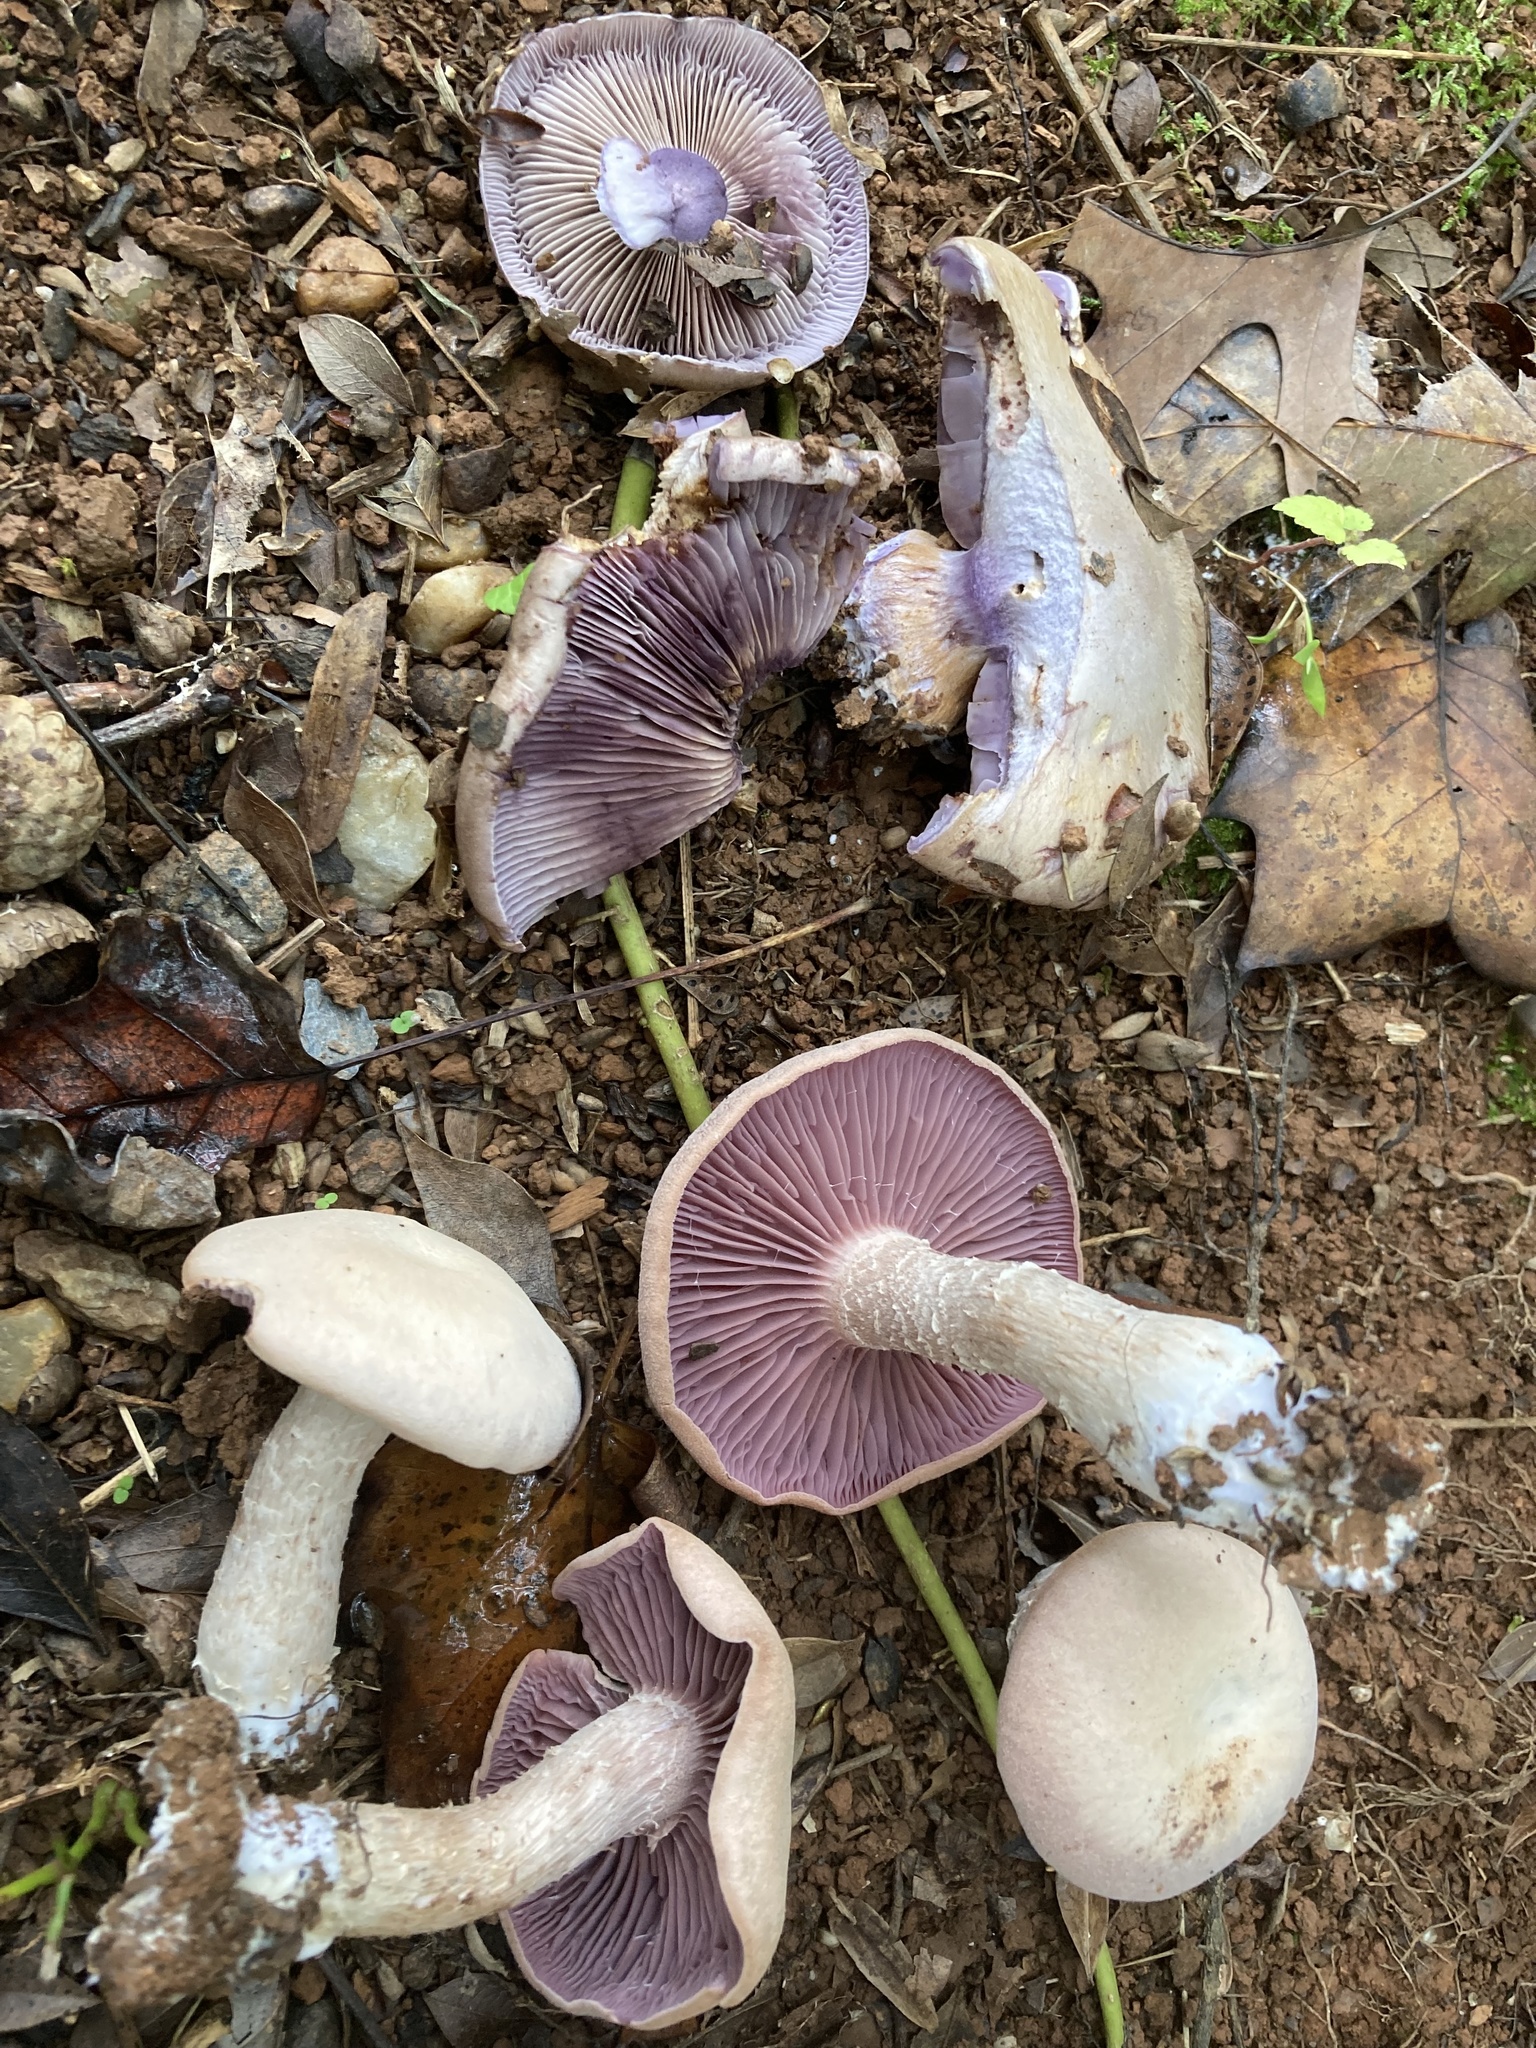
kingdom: Fungi
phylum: Basidiomycota
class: Agaricomycetes
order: Agaricales
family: Hydnangiaceae
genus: Laccaria
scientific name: Laccaria ochropurpurea
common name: Purple laccaria
